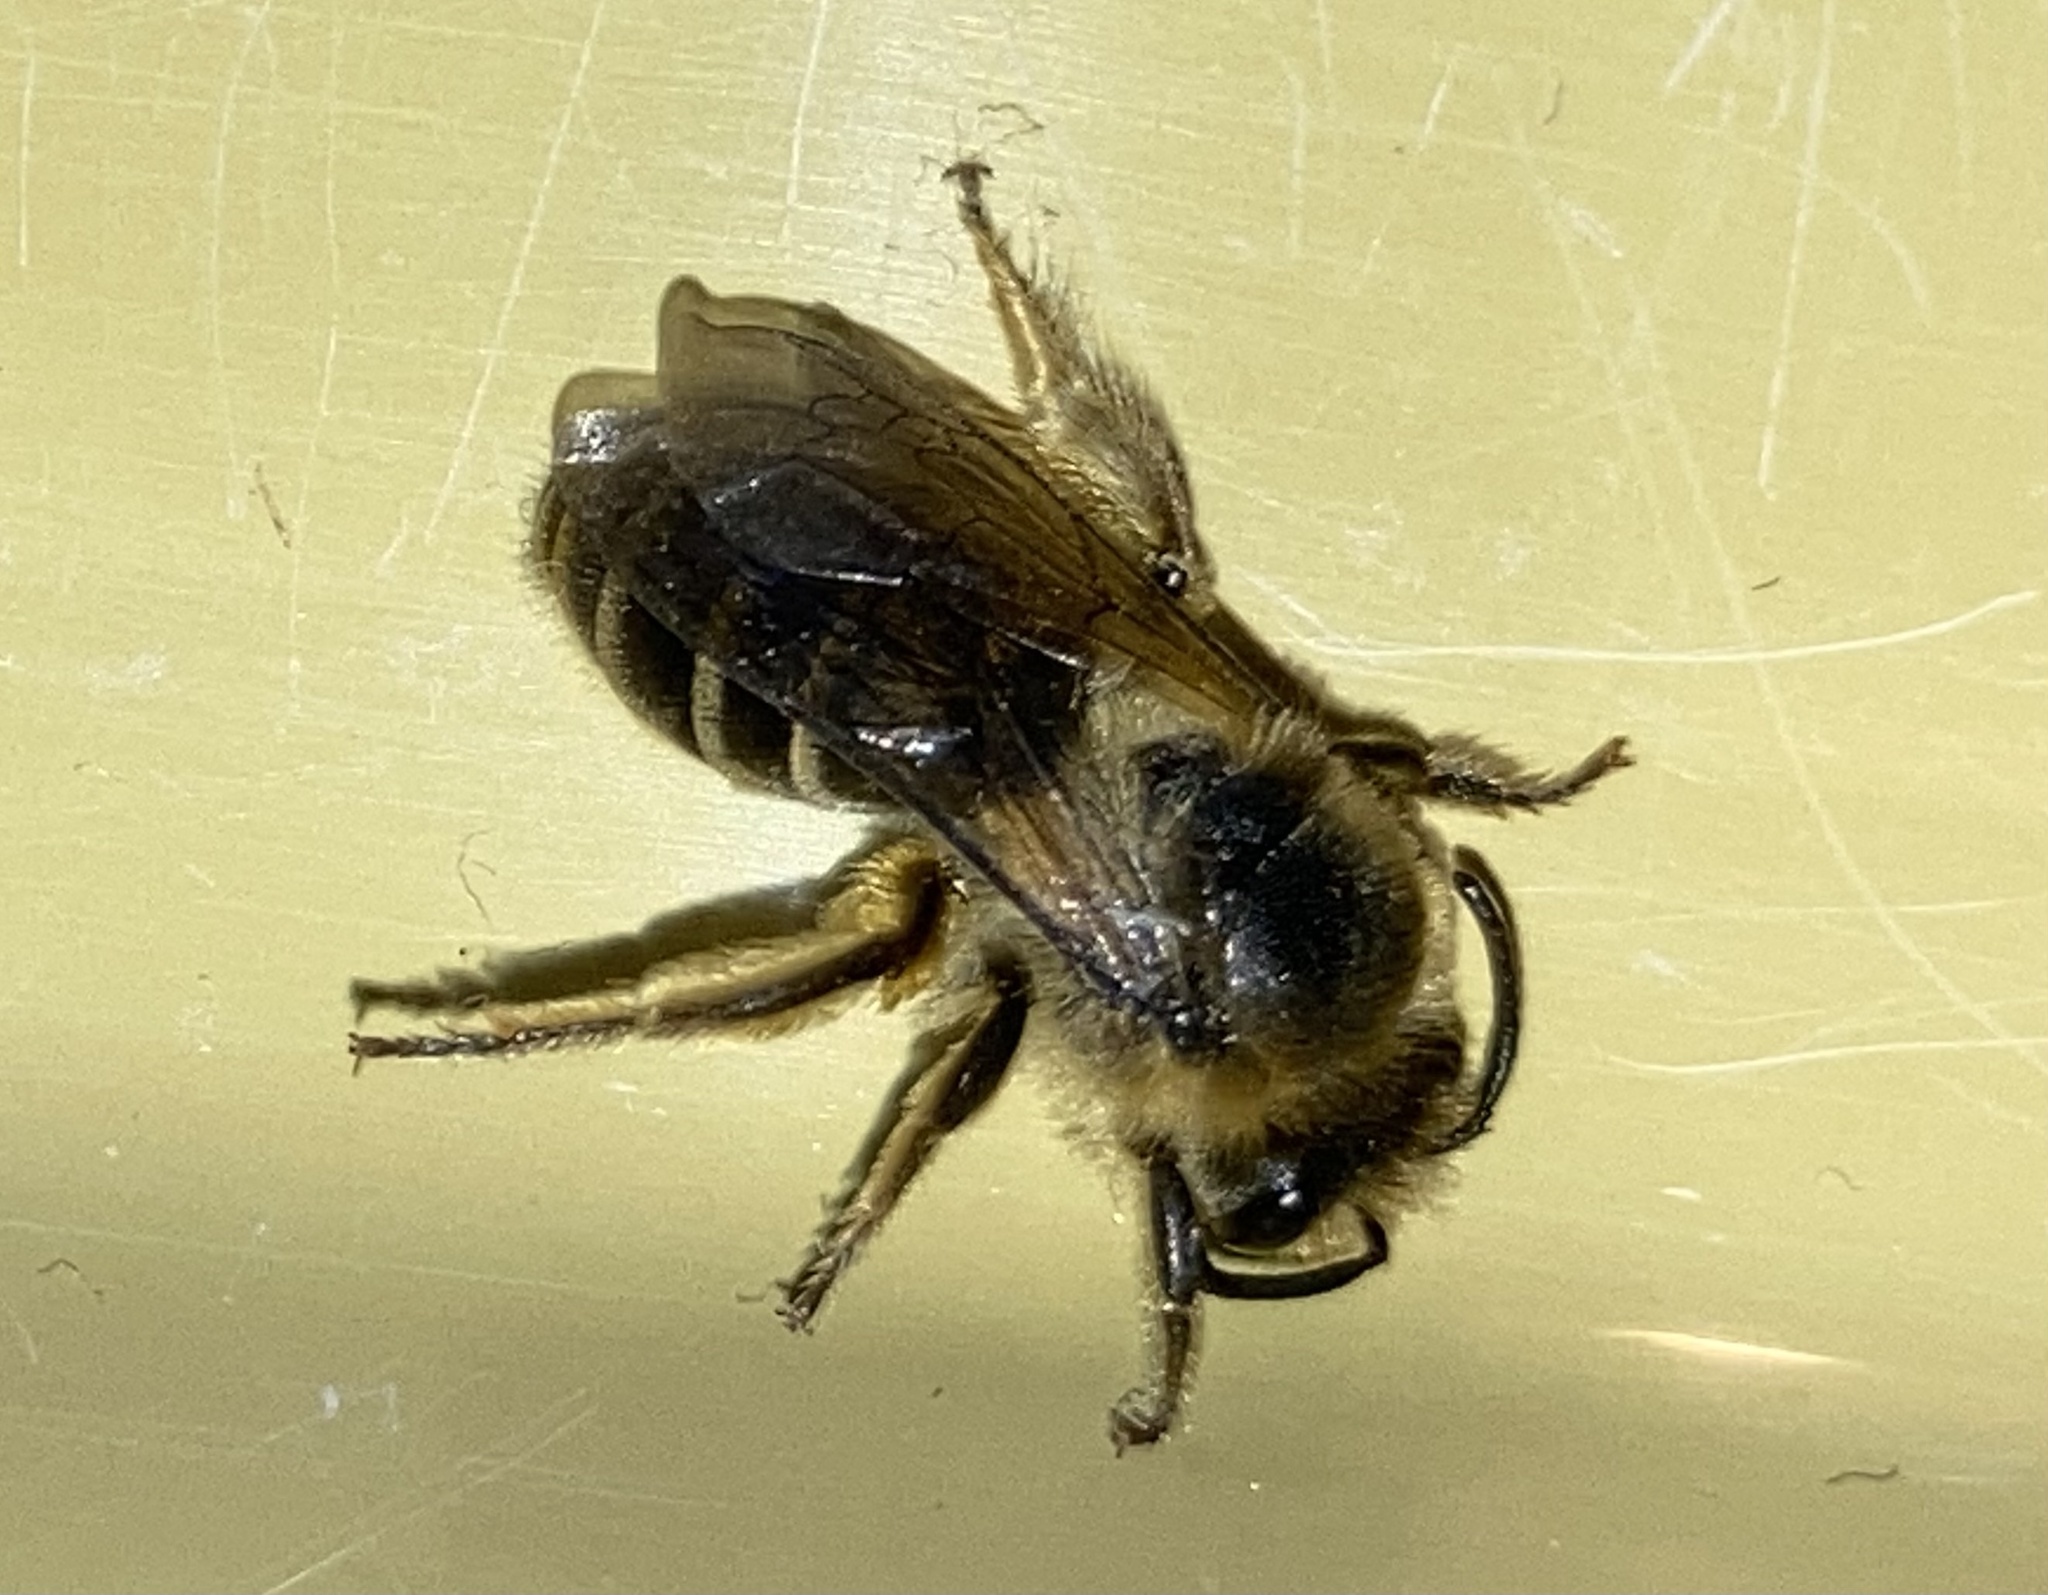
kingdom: Animalia
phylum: Arthropoda
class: Insecta
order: Hymenoptera
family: Colletidae
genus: Colletes
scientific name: Colletes inaequalis
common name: Unequal cellophane bee
